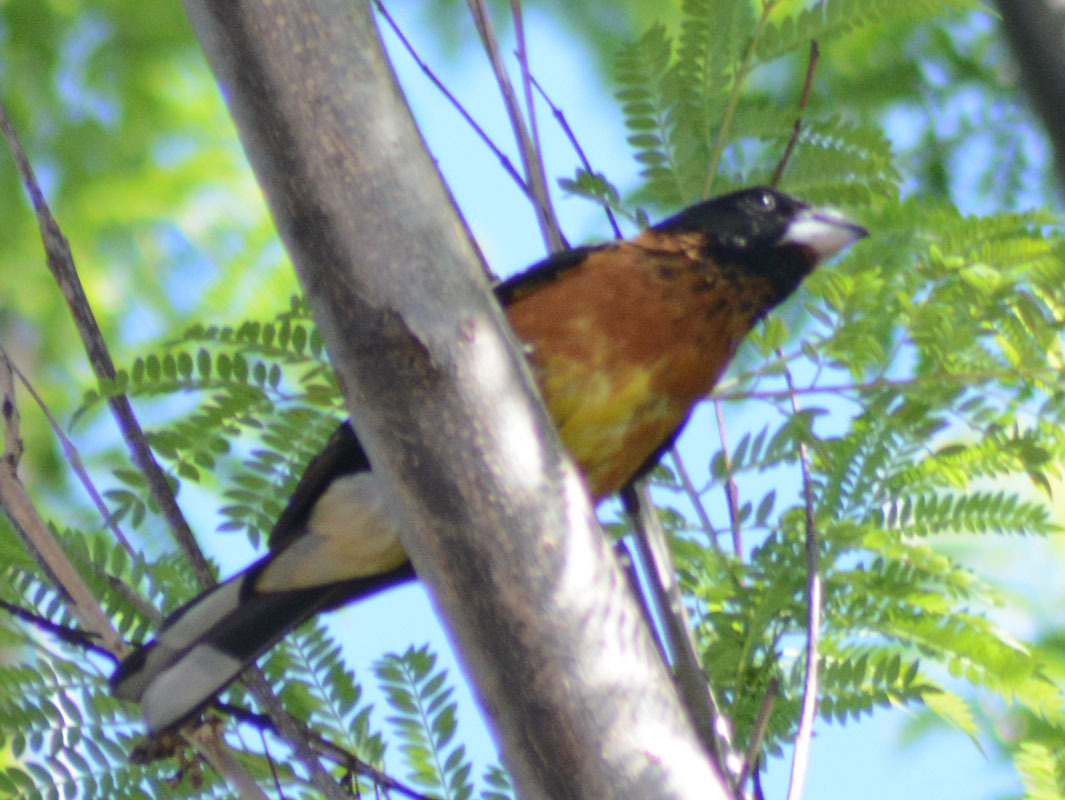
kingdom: Animalia
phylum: Chordata
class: Aves
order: Passeriformes
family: Cardinalidae
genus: Pheucticus
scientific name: Pheucticus melanocephalus
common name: Black-headed grosbeak
